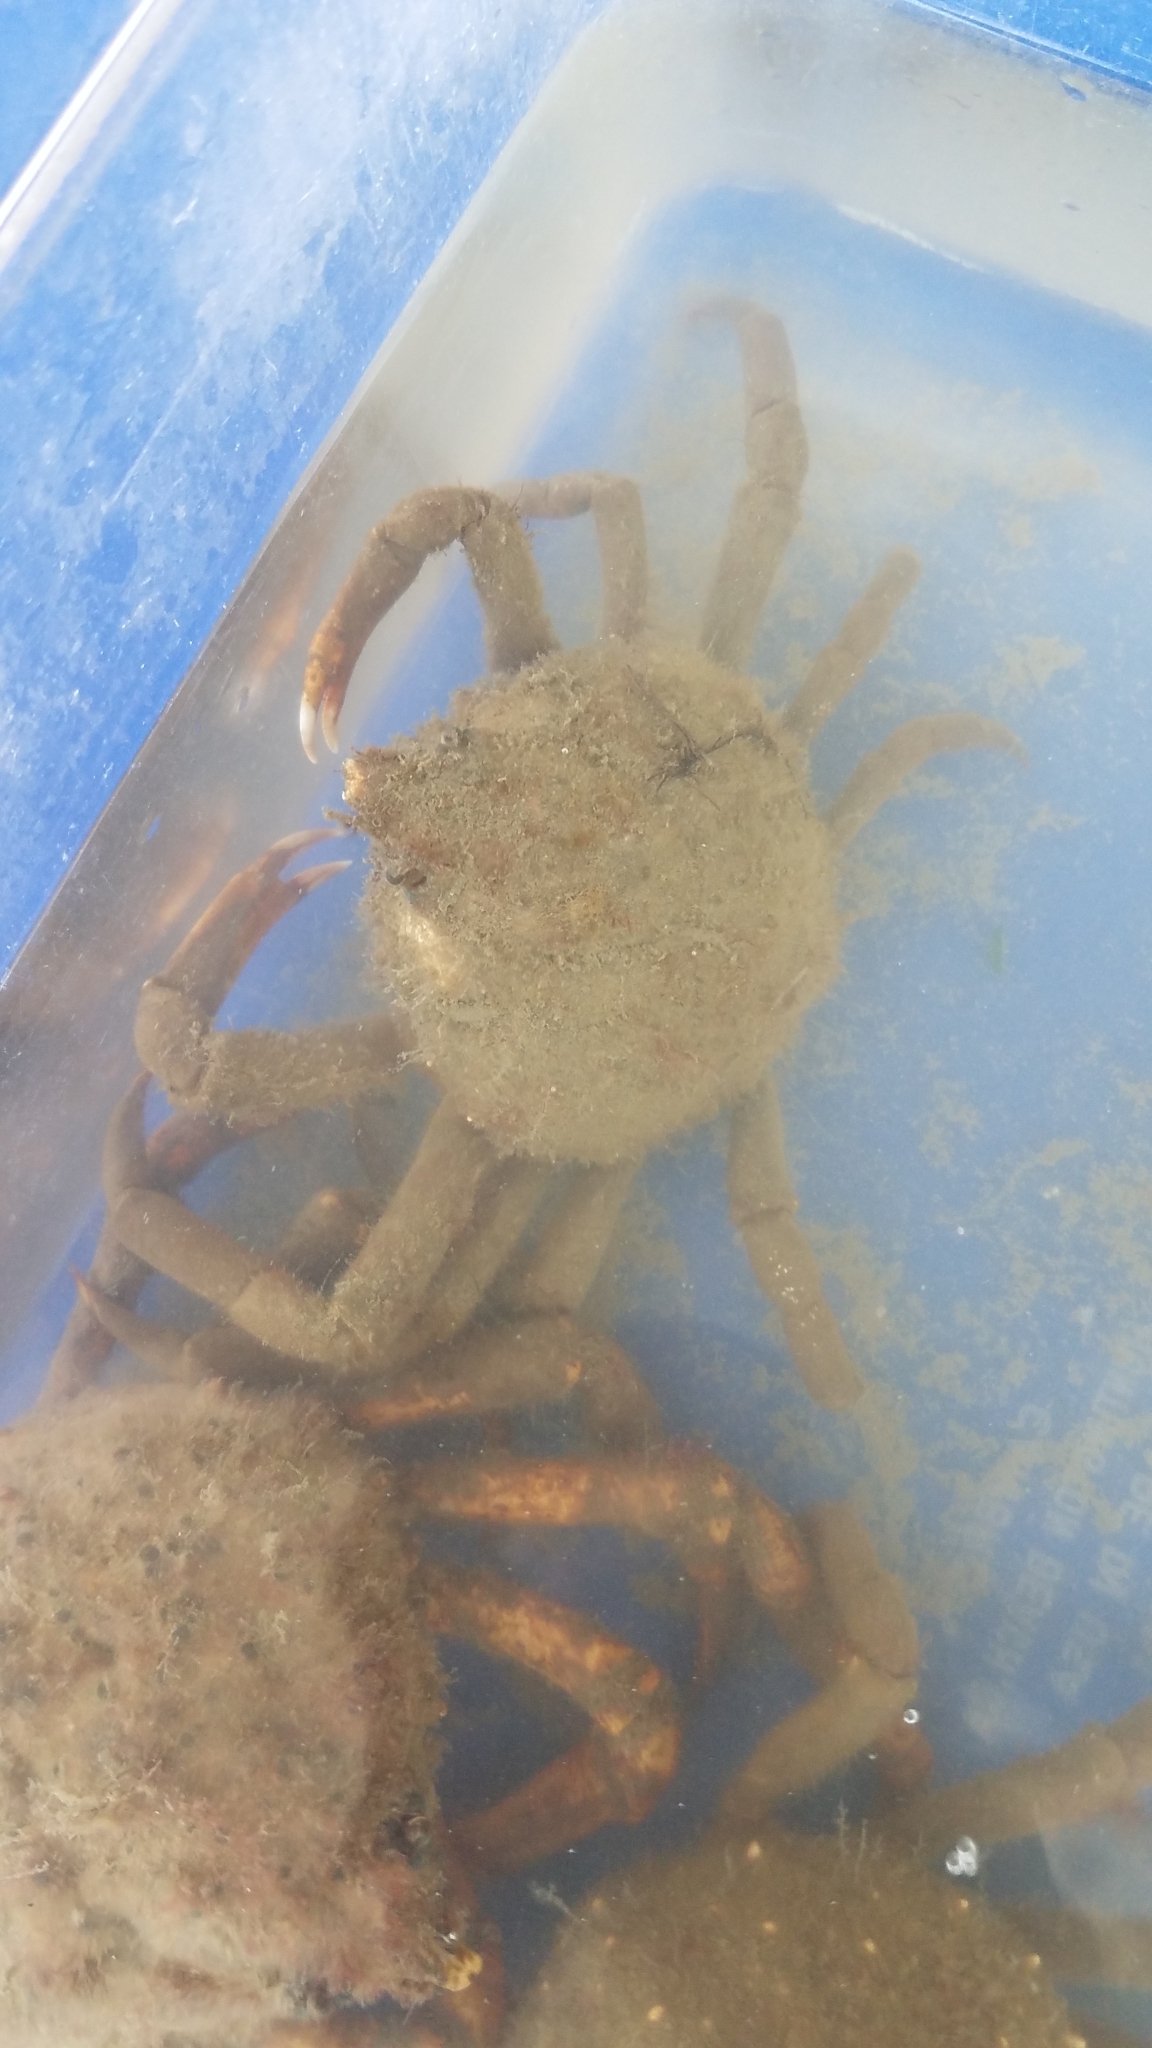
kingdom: Animalia
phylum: Arthropoda
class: Malacostraca
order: Decapoda
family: Epialtidae
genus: Libinia
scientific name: Libinia emarginata
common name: Common spider crab
